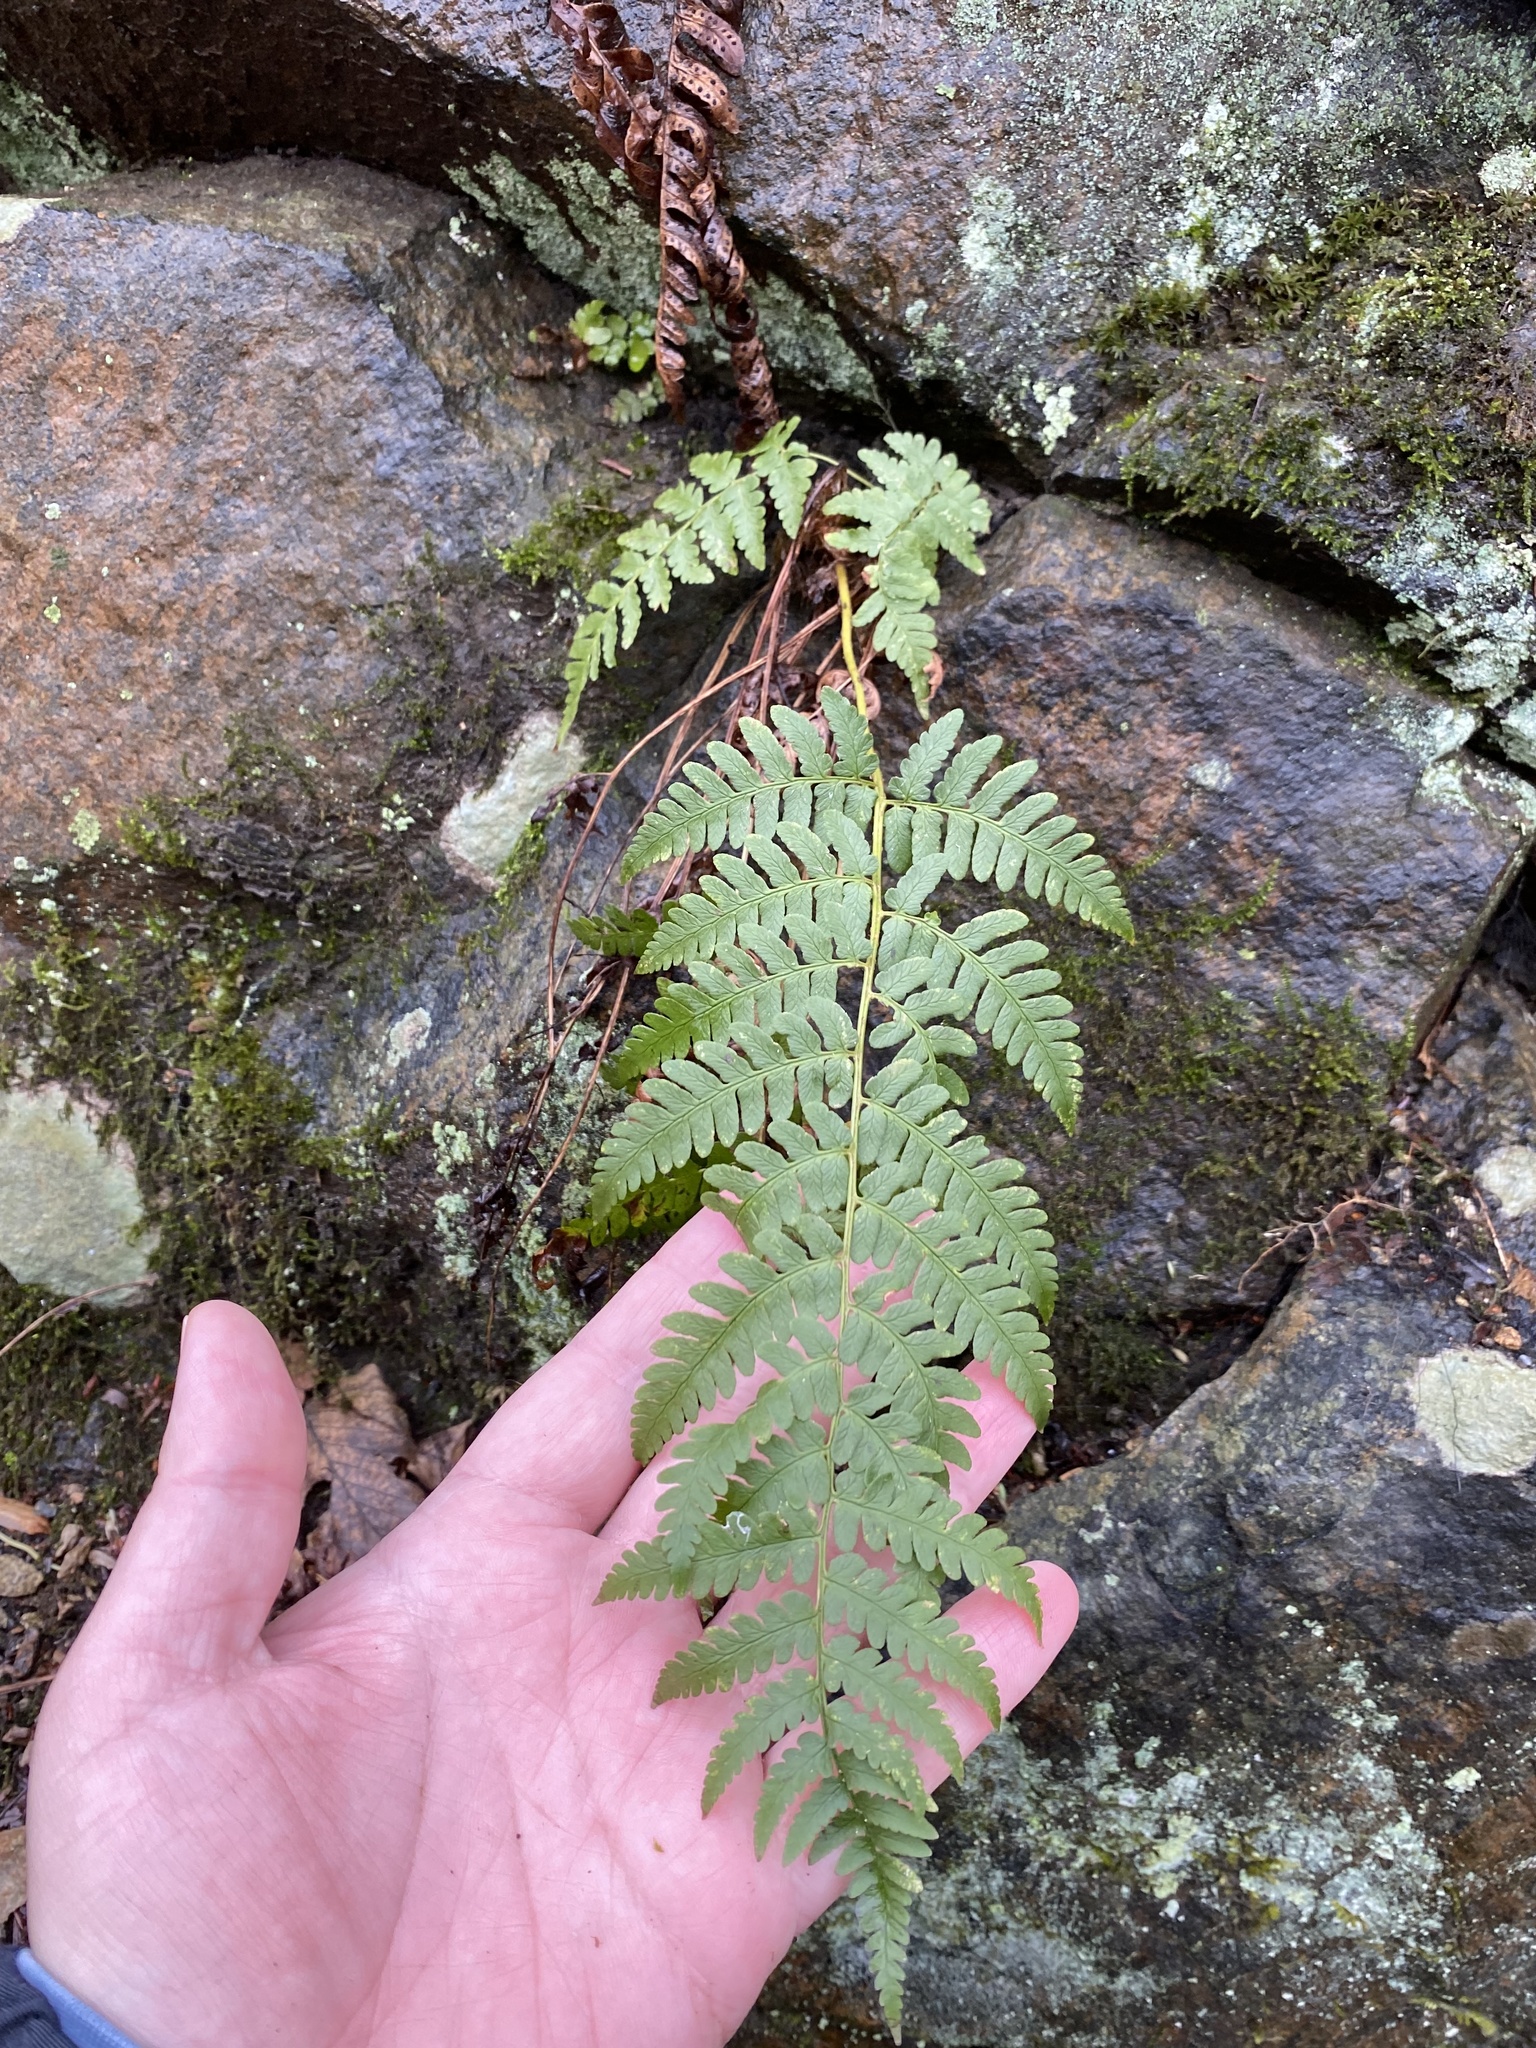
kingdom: Plantae
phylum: Tracheophyta
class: Polypodiopsida
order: Polypodiales
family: Dryopteridaceae
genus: Dryopteris
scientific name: Dryopteris marginalis
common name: Marginal wood fern
